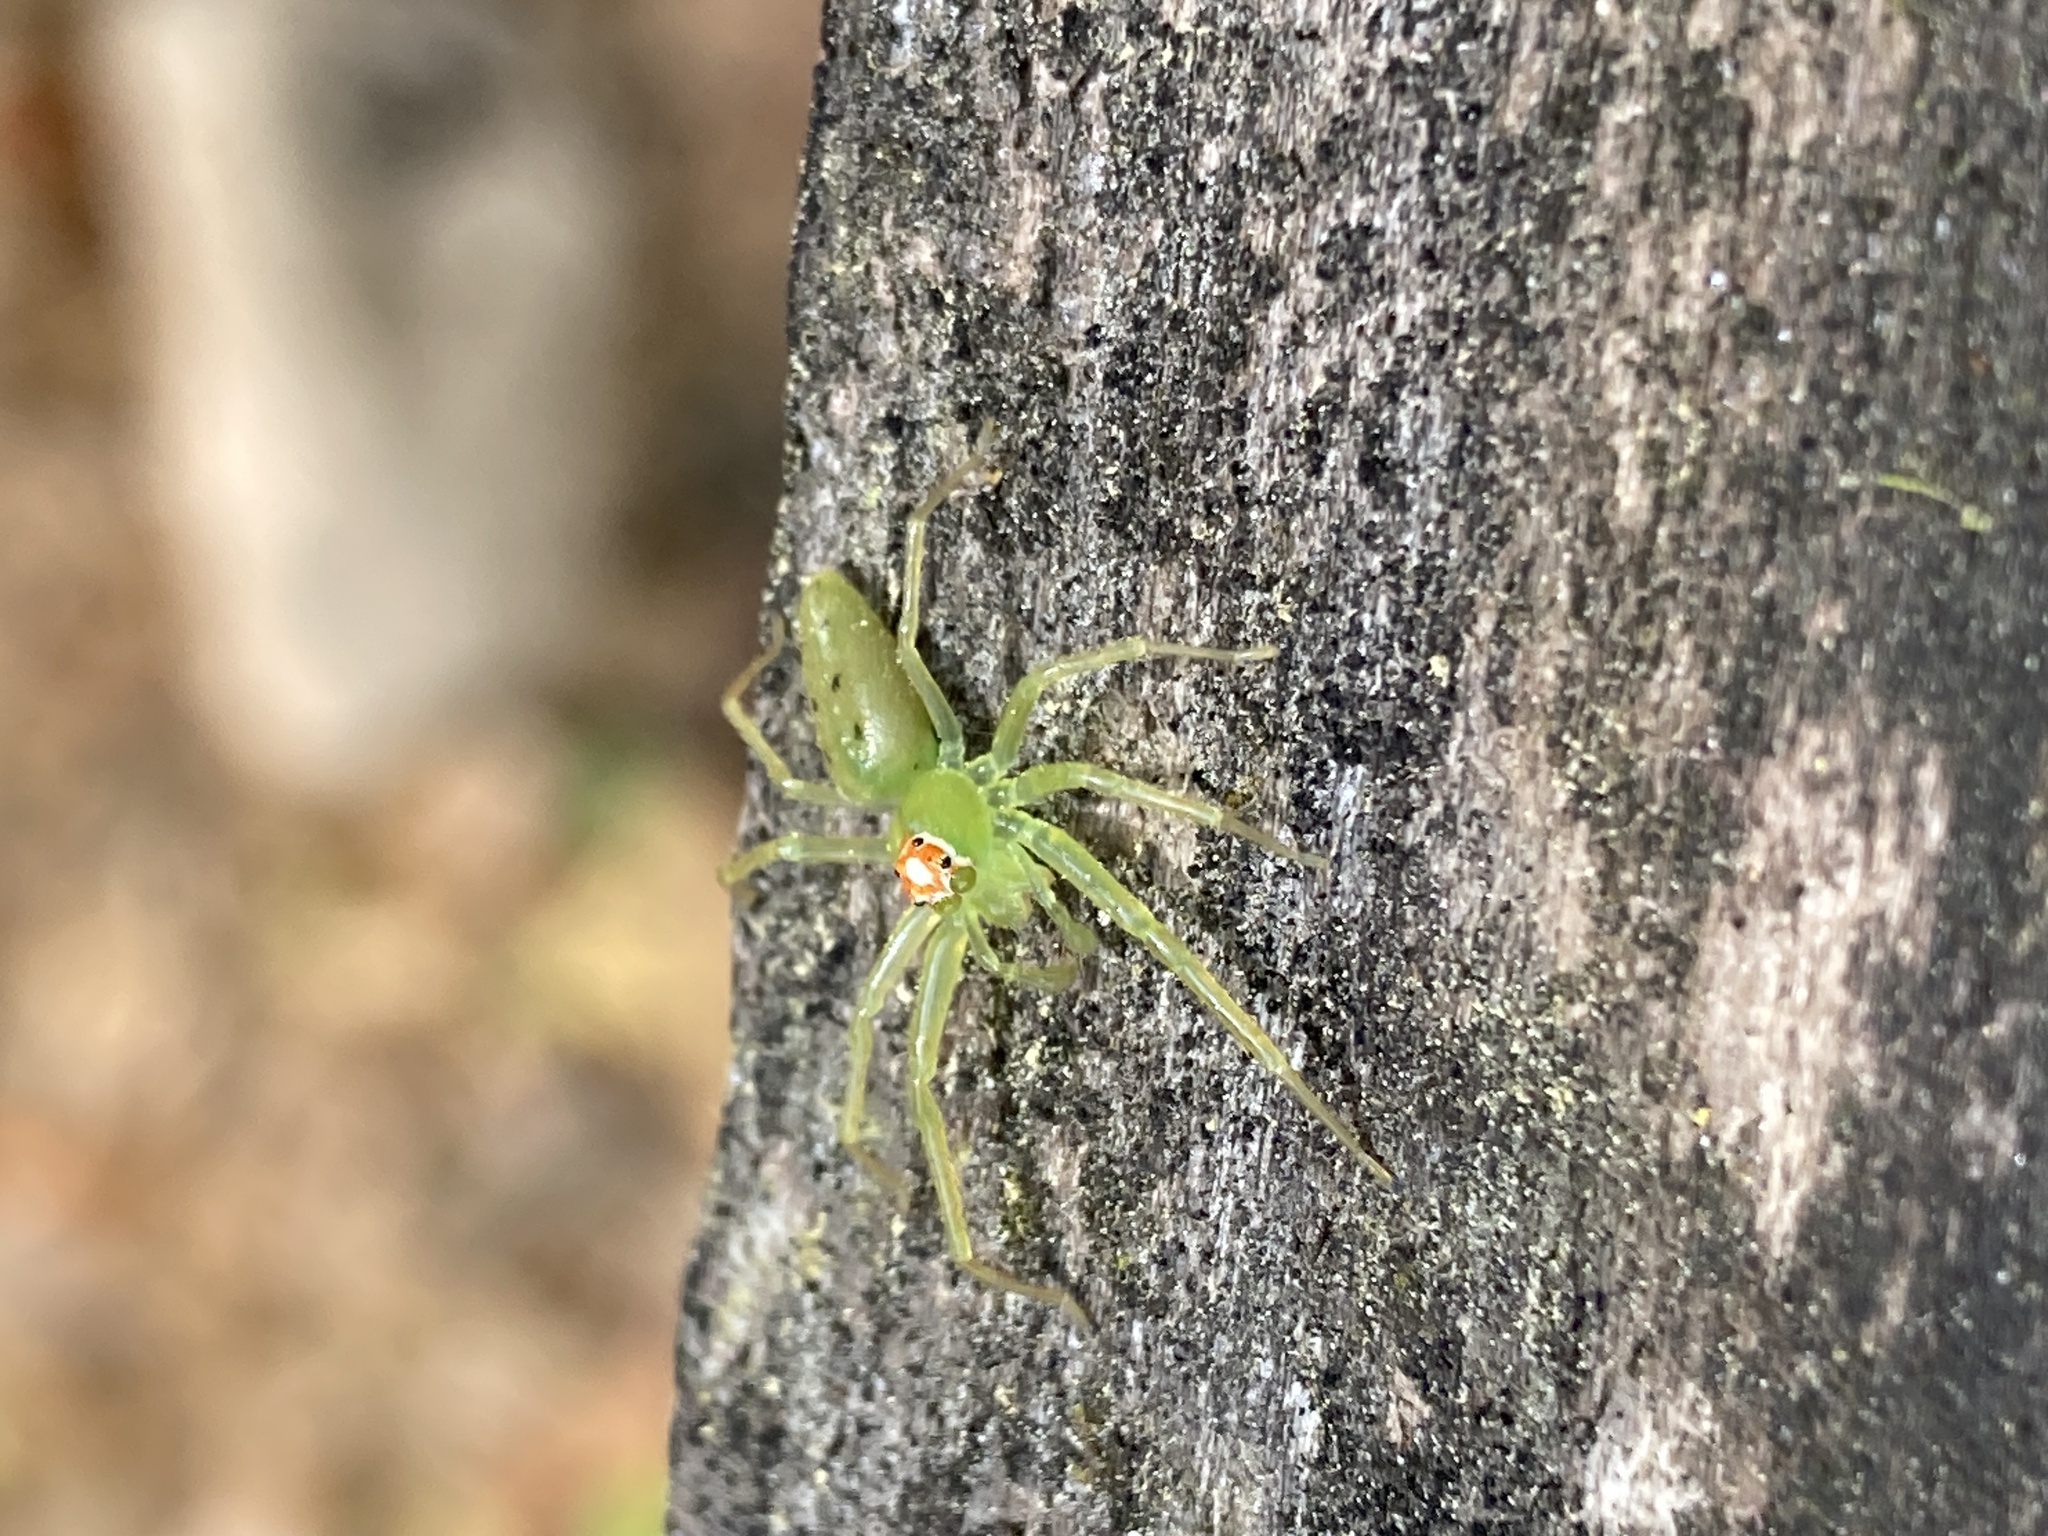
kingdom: Animalia
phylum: Arthropoda
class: Arachnida
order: Araneae
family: Salticidae
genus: Lyssomanes
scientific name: Lyssomanes viridis
